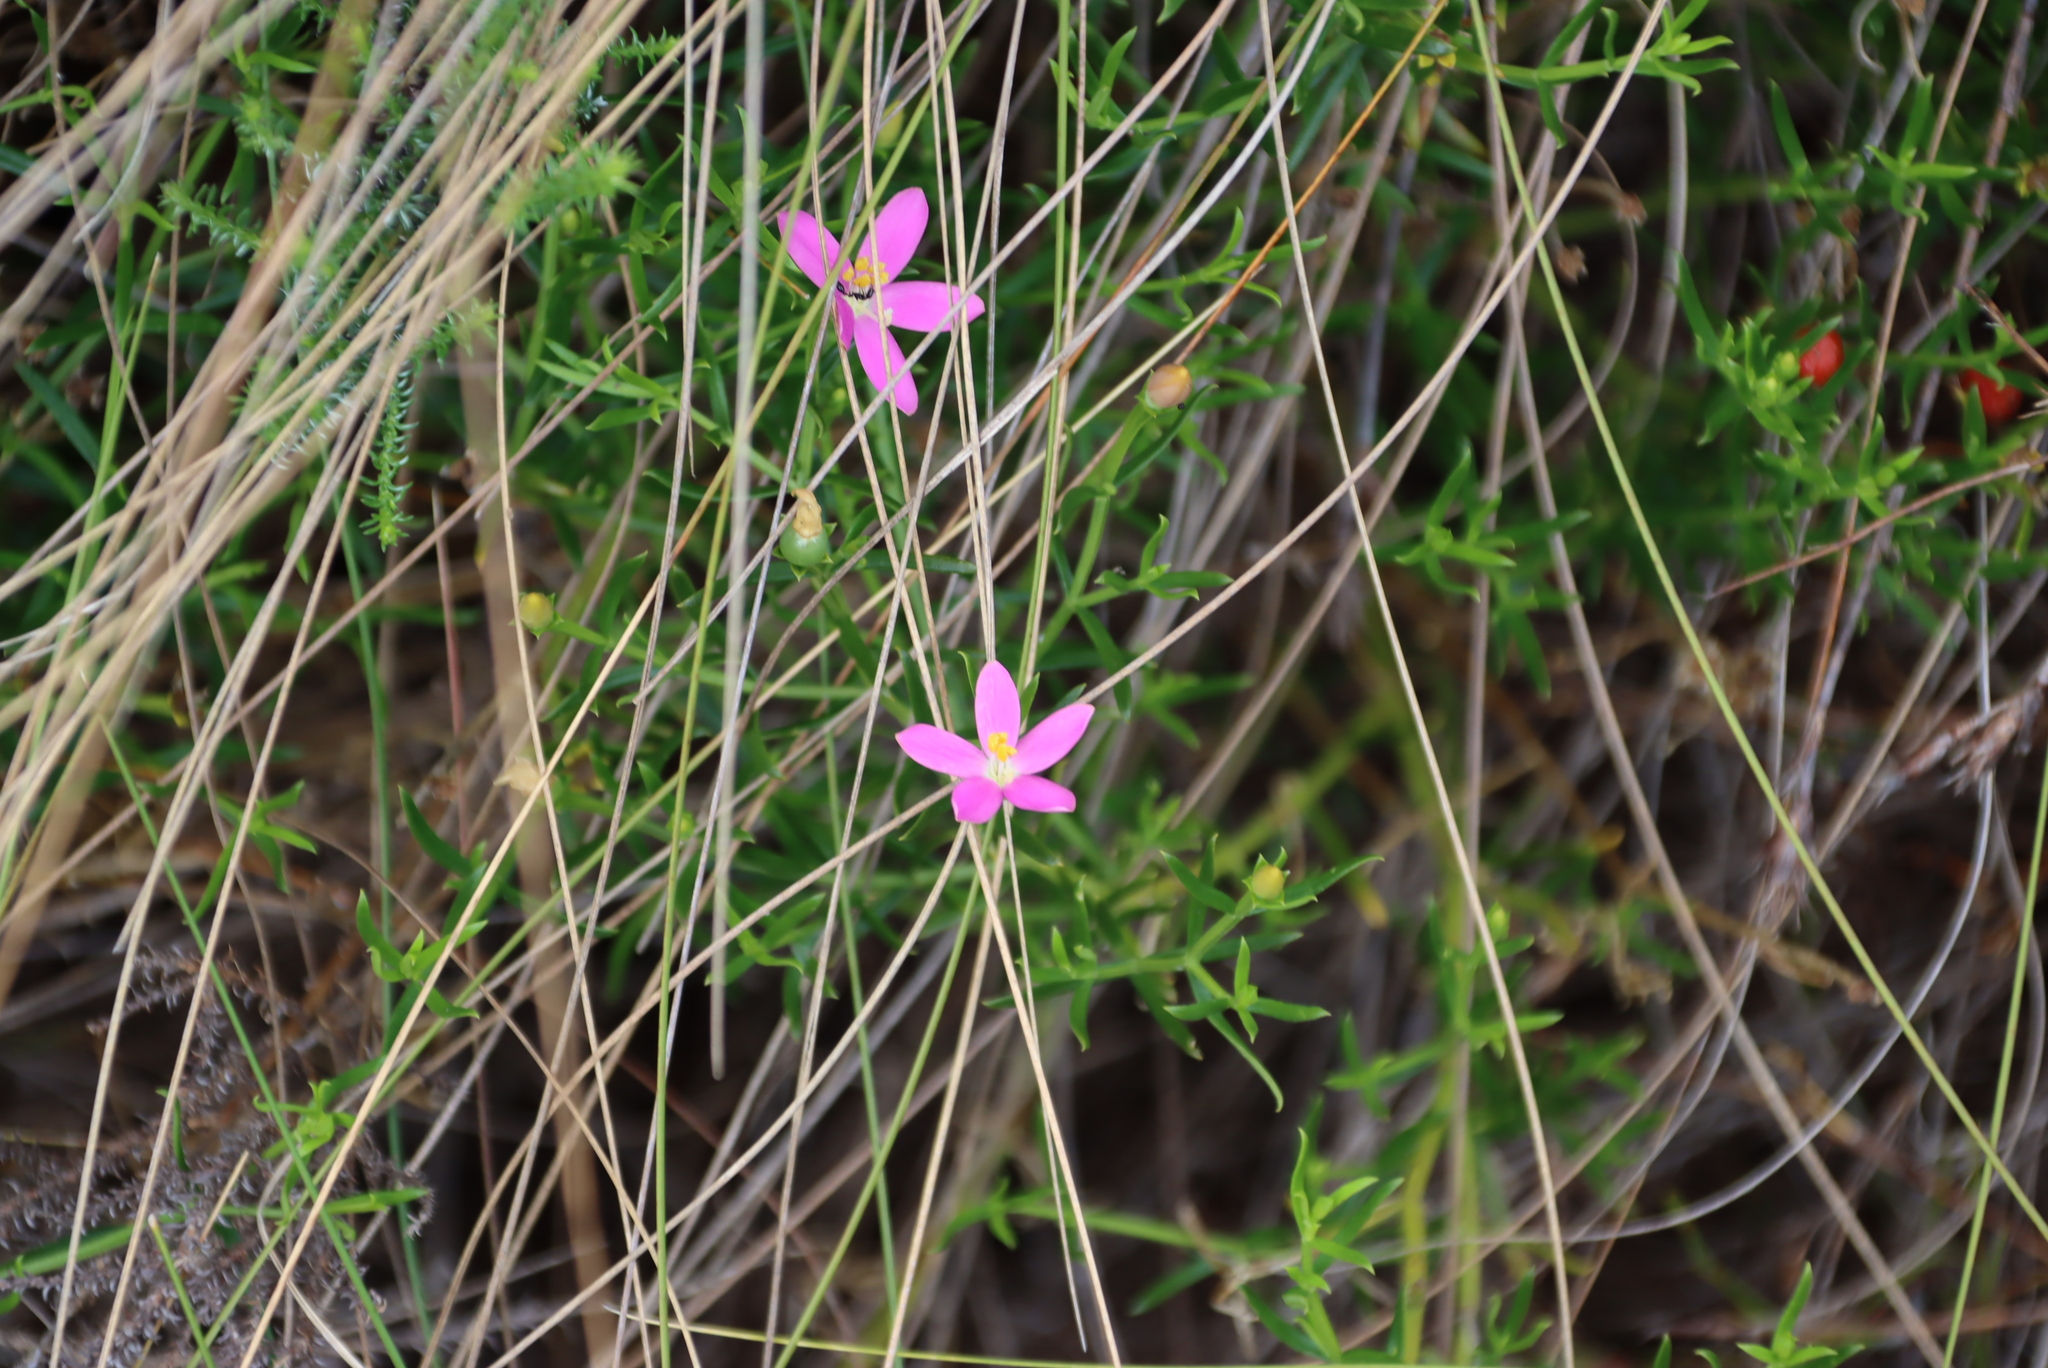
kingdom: Plantae
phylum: Tracheophyta
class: Magnoliopsida
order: Gentianales
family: Gentianaceae
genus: Chironia
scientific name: Chironia baccifera
